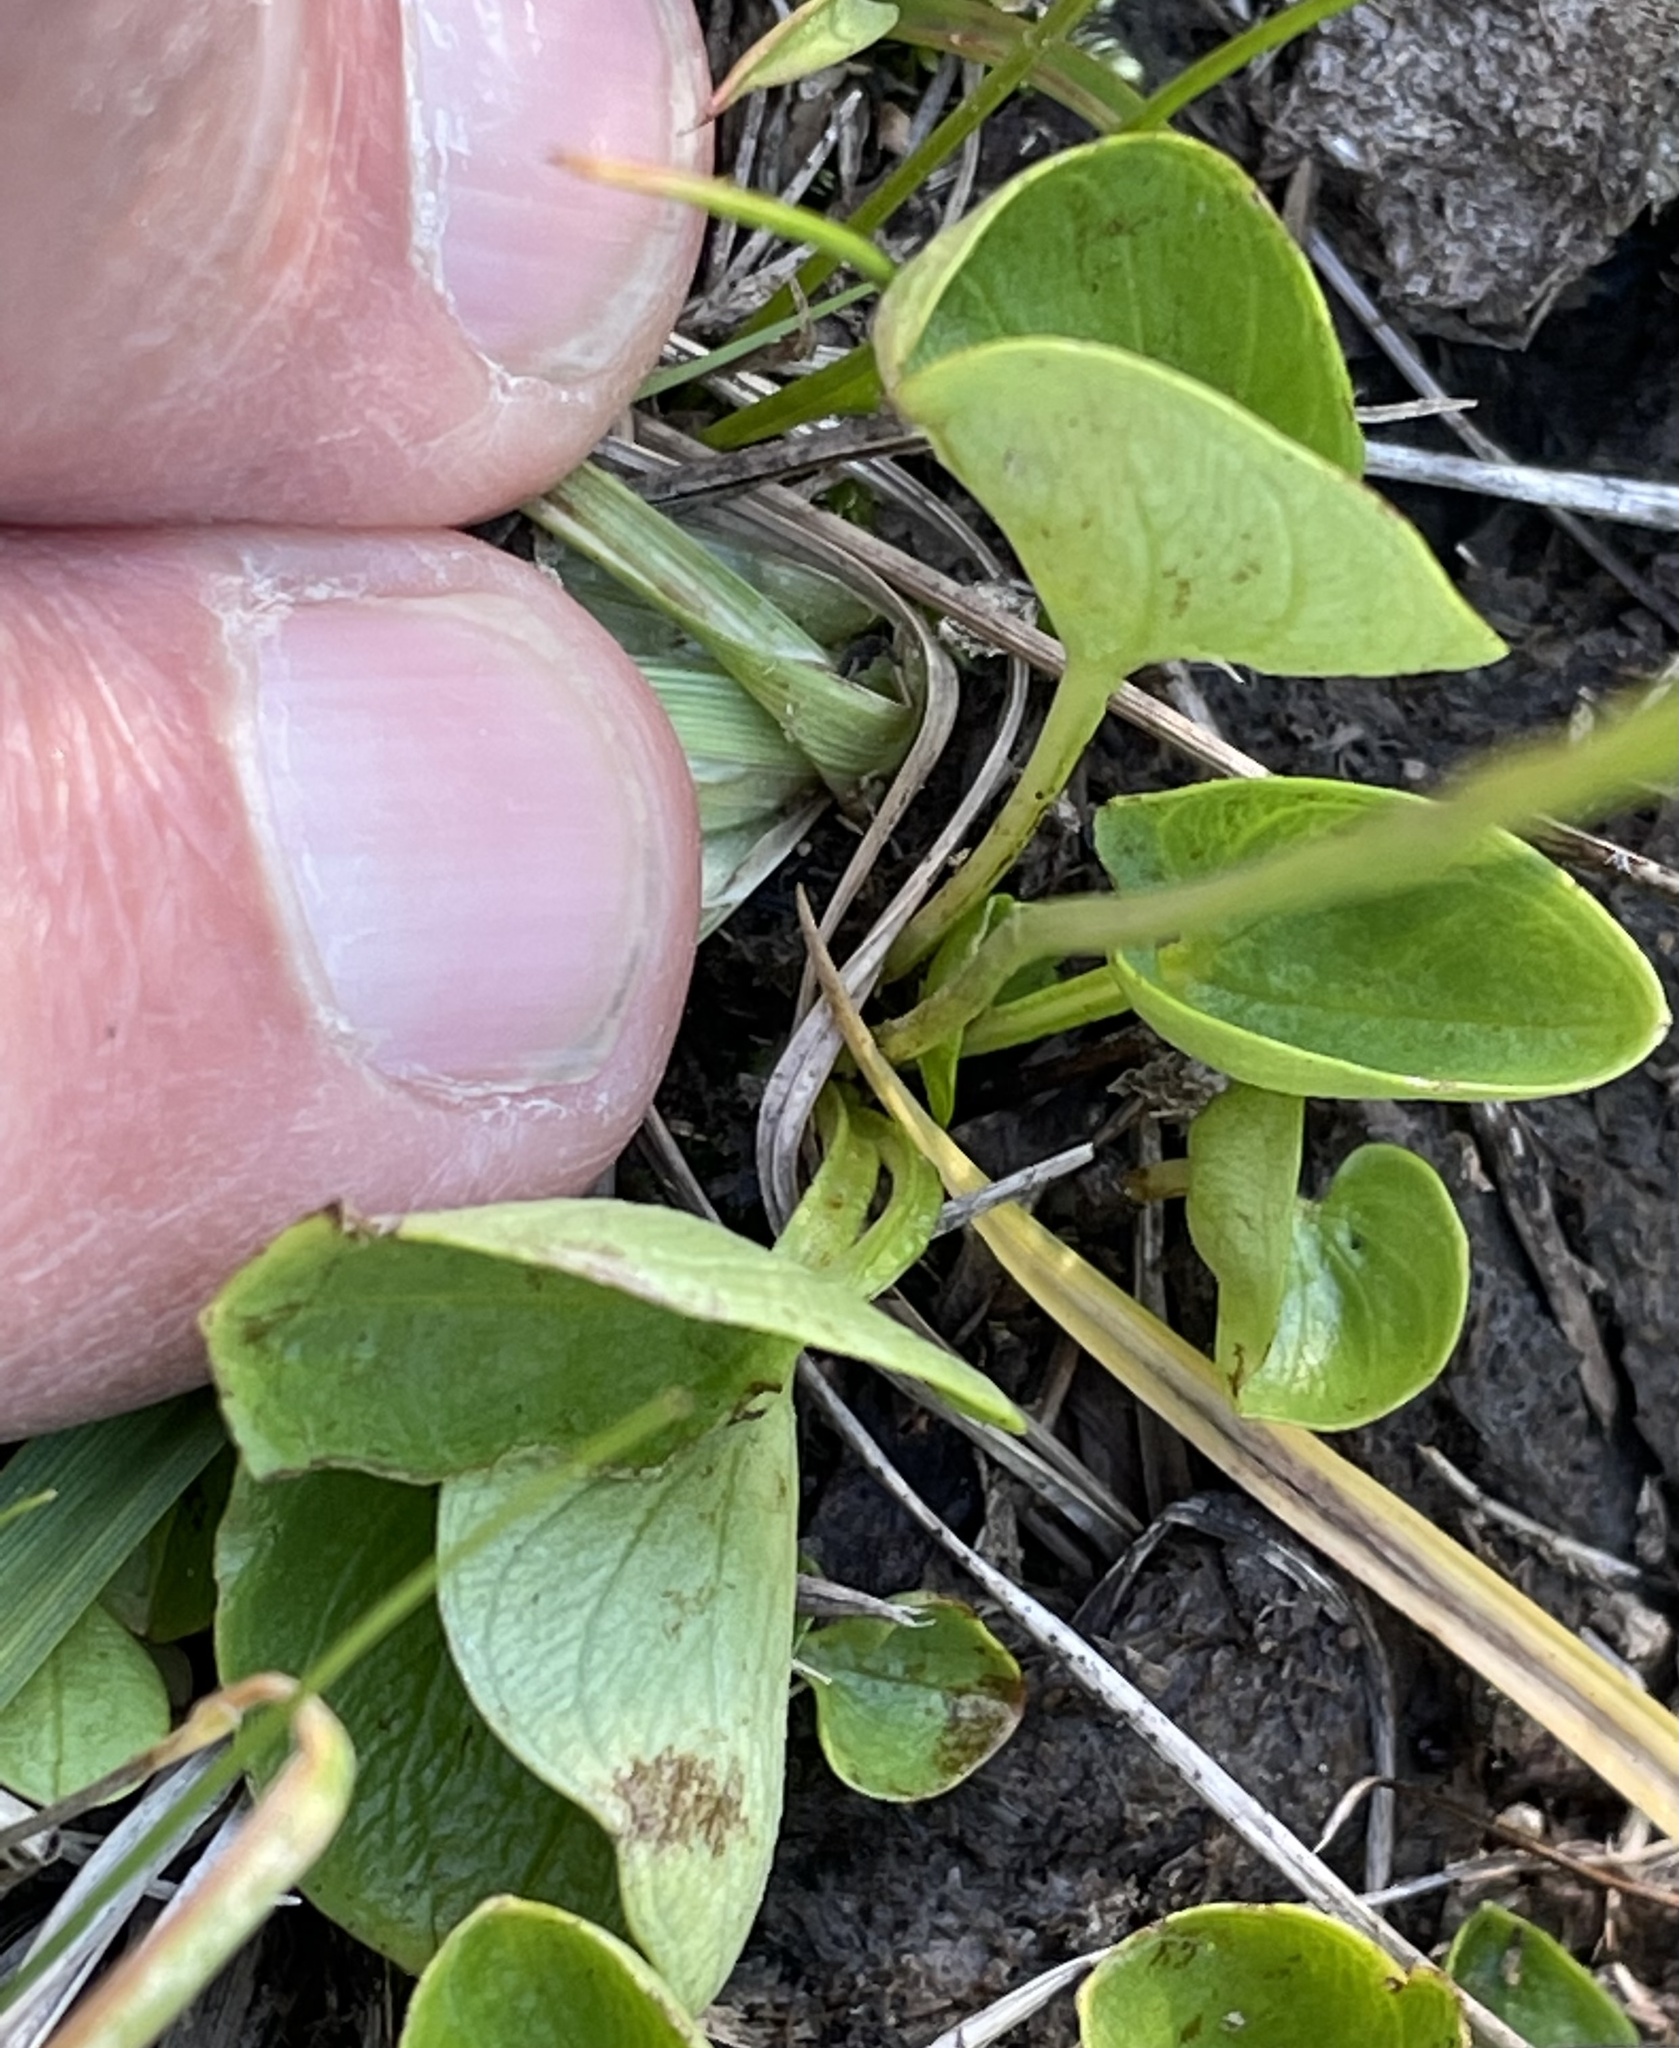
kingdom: Plantae
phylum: Tracheophyta
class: Magnoliopsida
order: Celastrales
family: Parnassiaceae
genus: Parnassia
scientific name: Parnassia fimbriata
